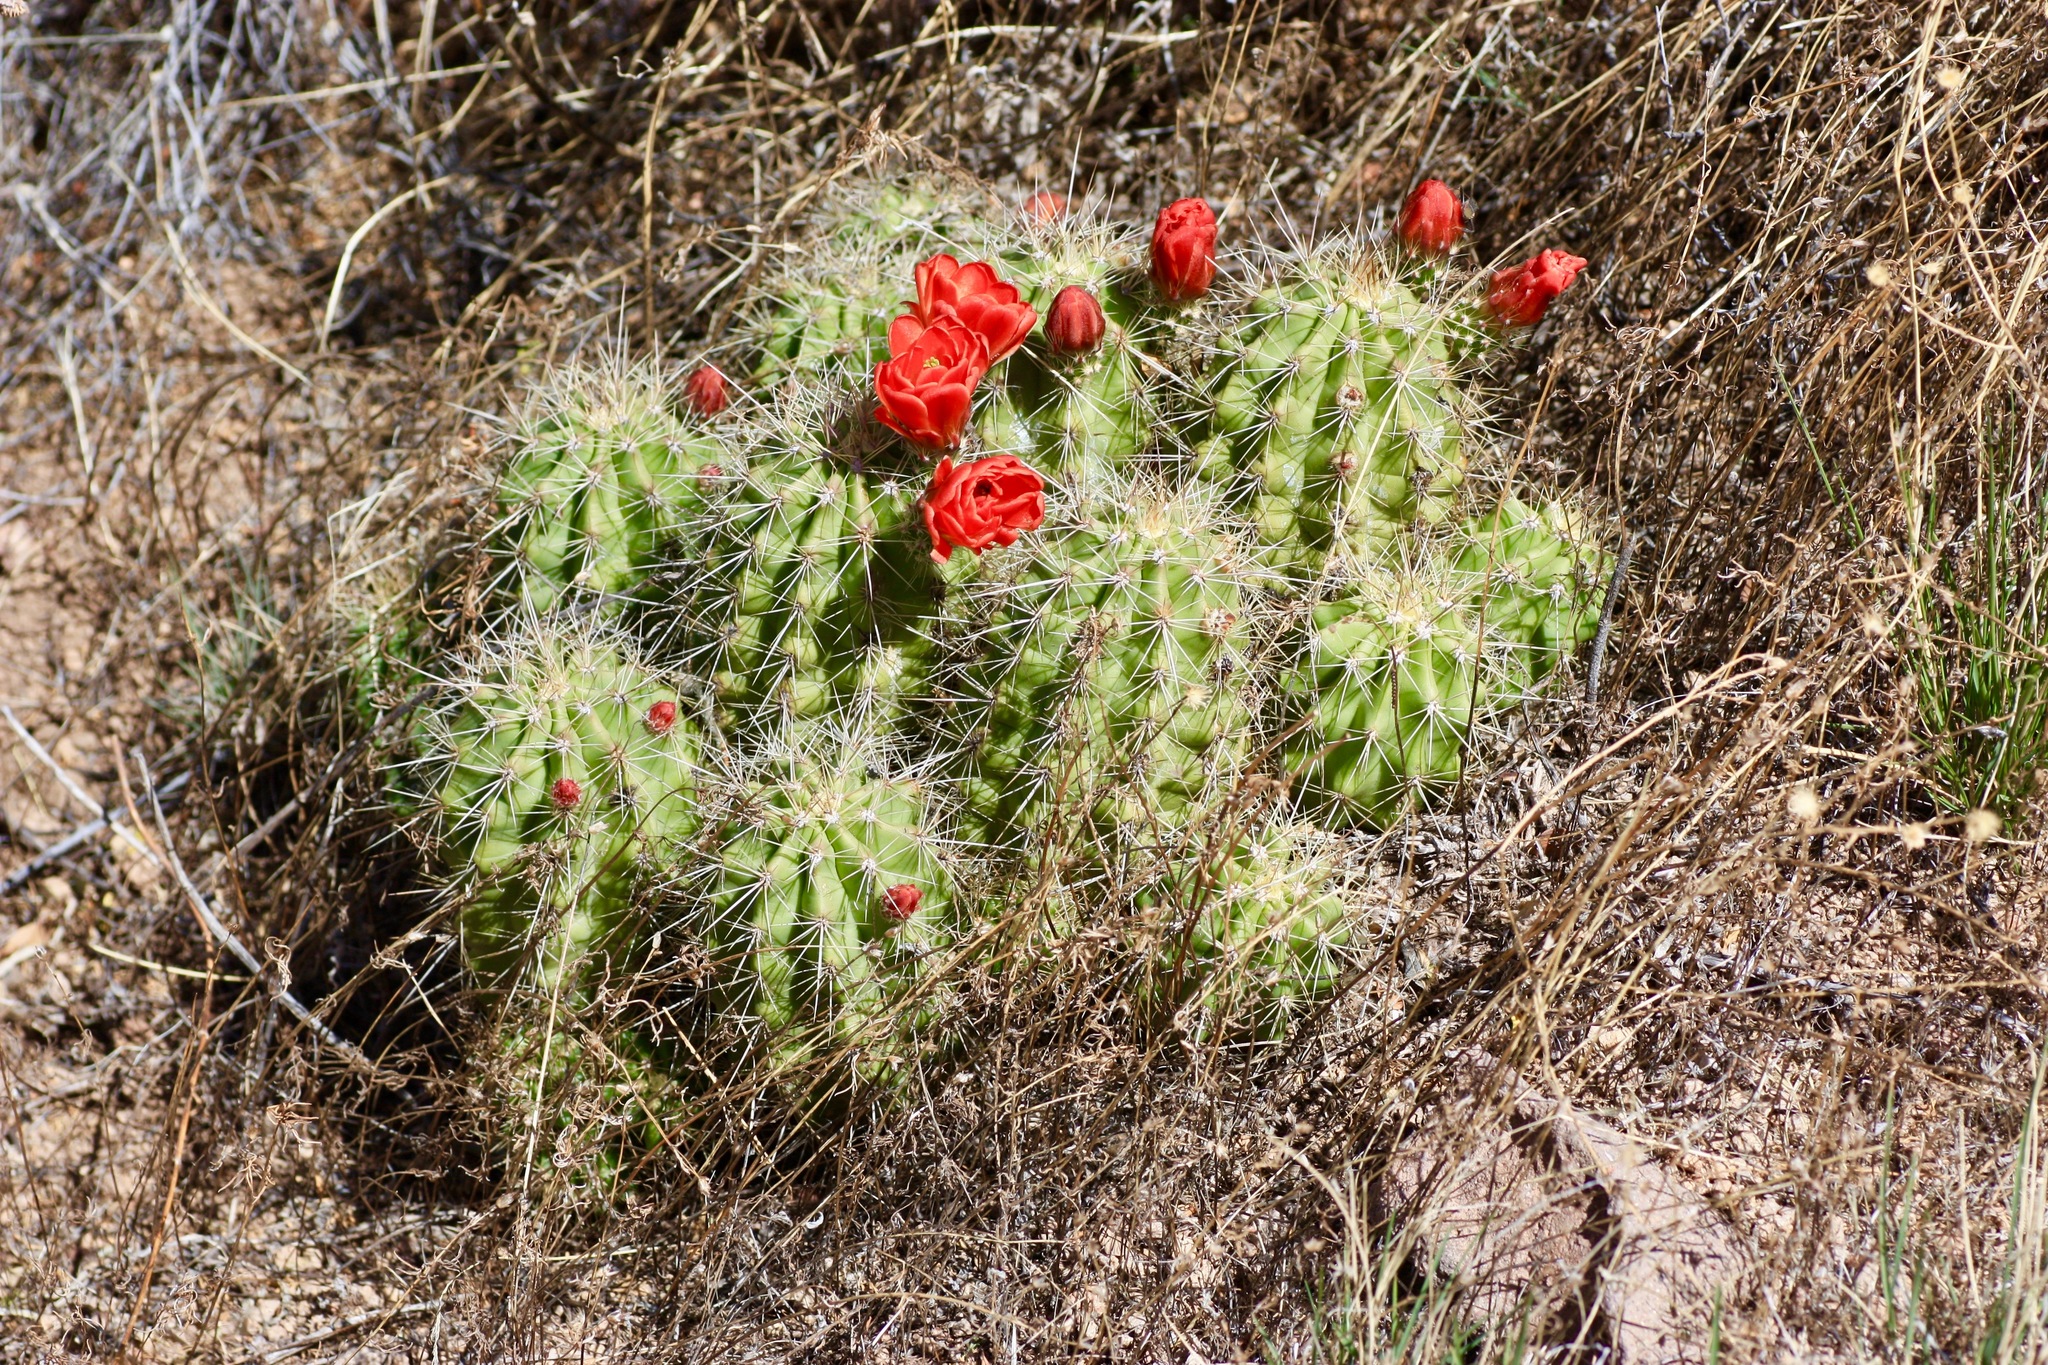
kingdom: Plantae
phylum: Tracheophyta
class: Magnoliopsida
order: Caryophyllales
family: Cactaceae
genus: Echinocereus
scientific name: Echinocereus coccineus
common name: Scarlet hedgehog cactus
